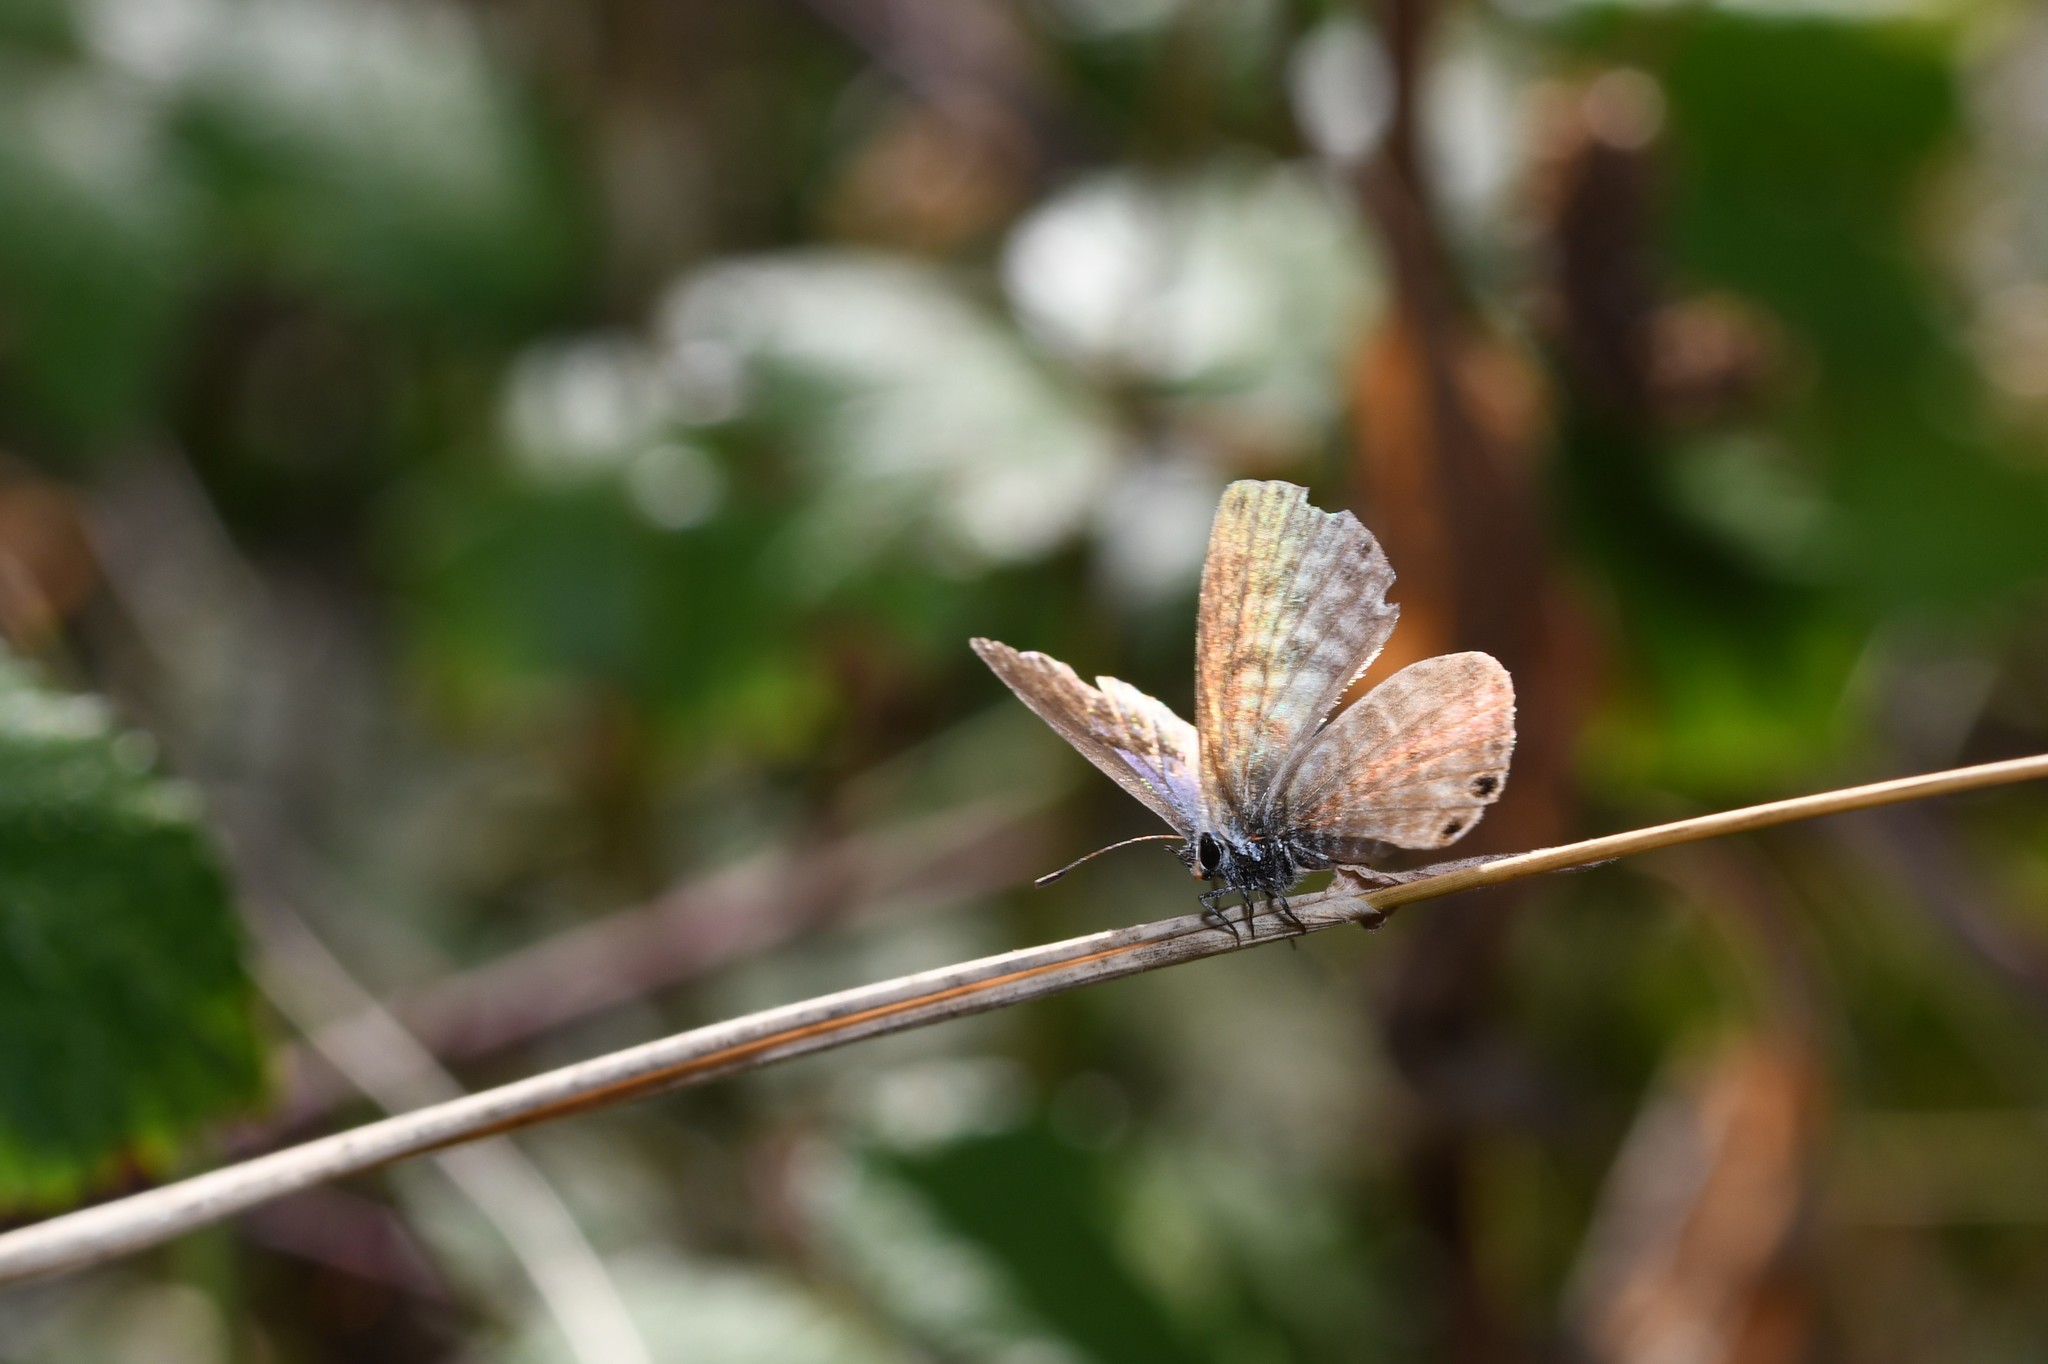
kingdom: Animalia
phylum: Arthropoda
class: Insecta
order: Lepidoptera
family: Lycaenidae
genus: Leptotes
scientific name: Leptotes pirithous
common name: Lang's short-tailed blue
